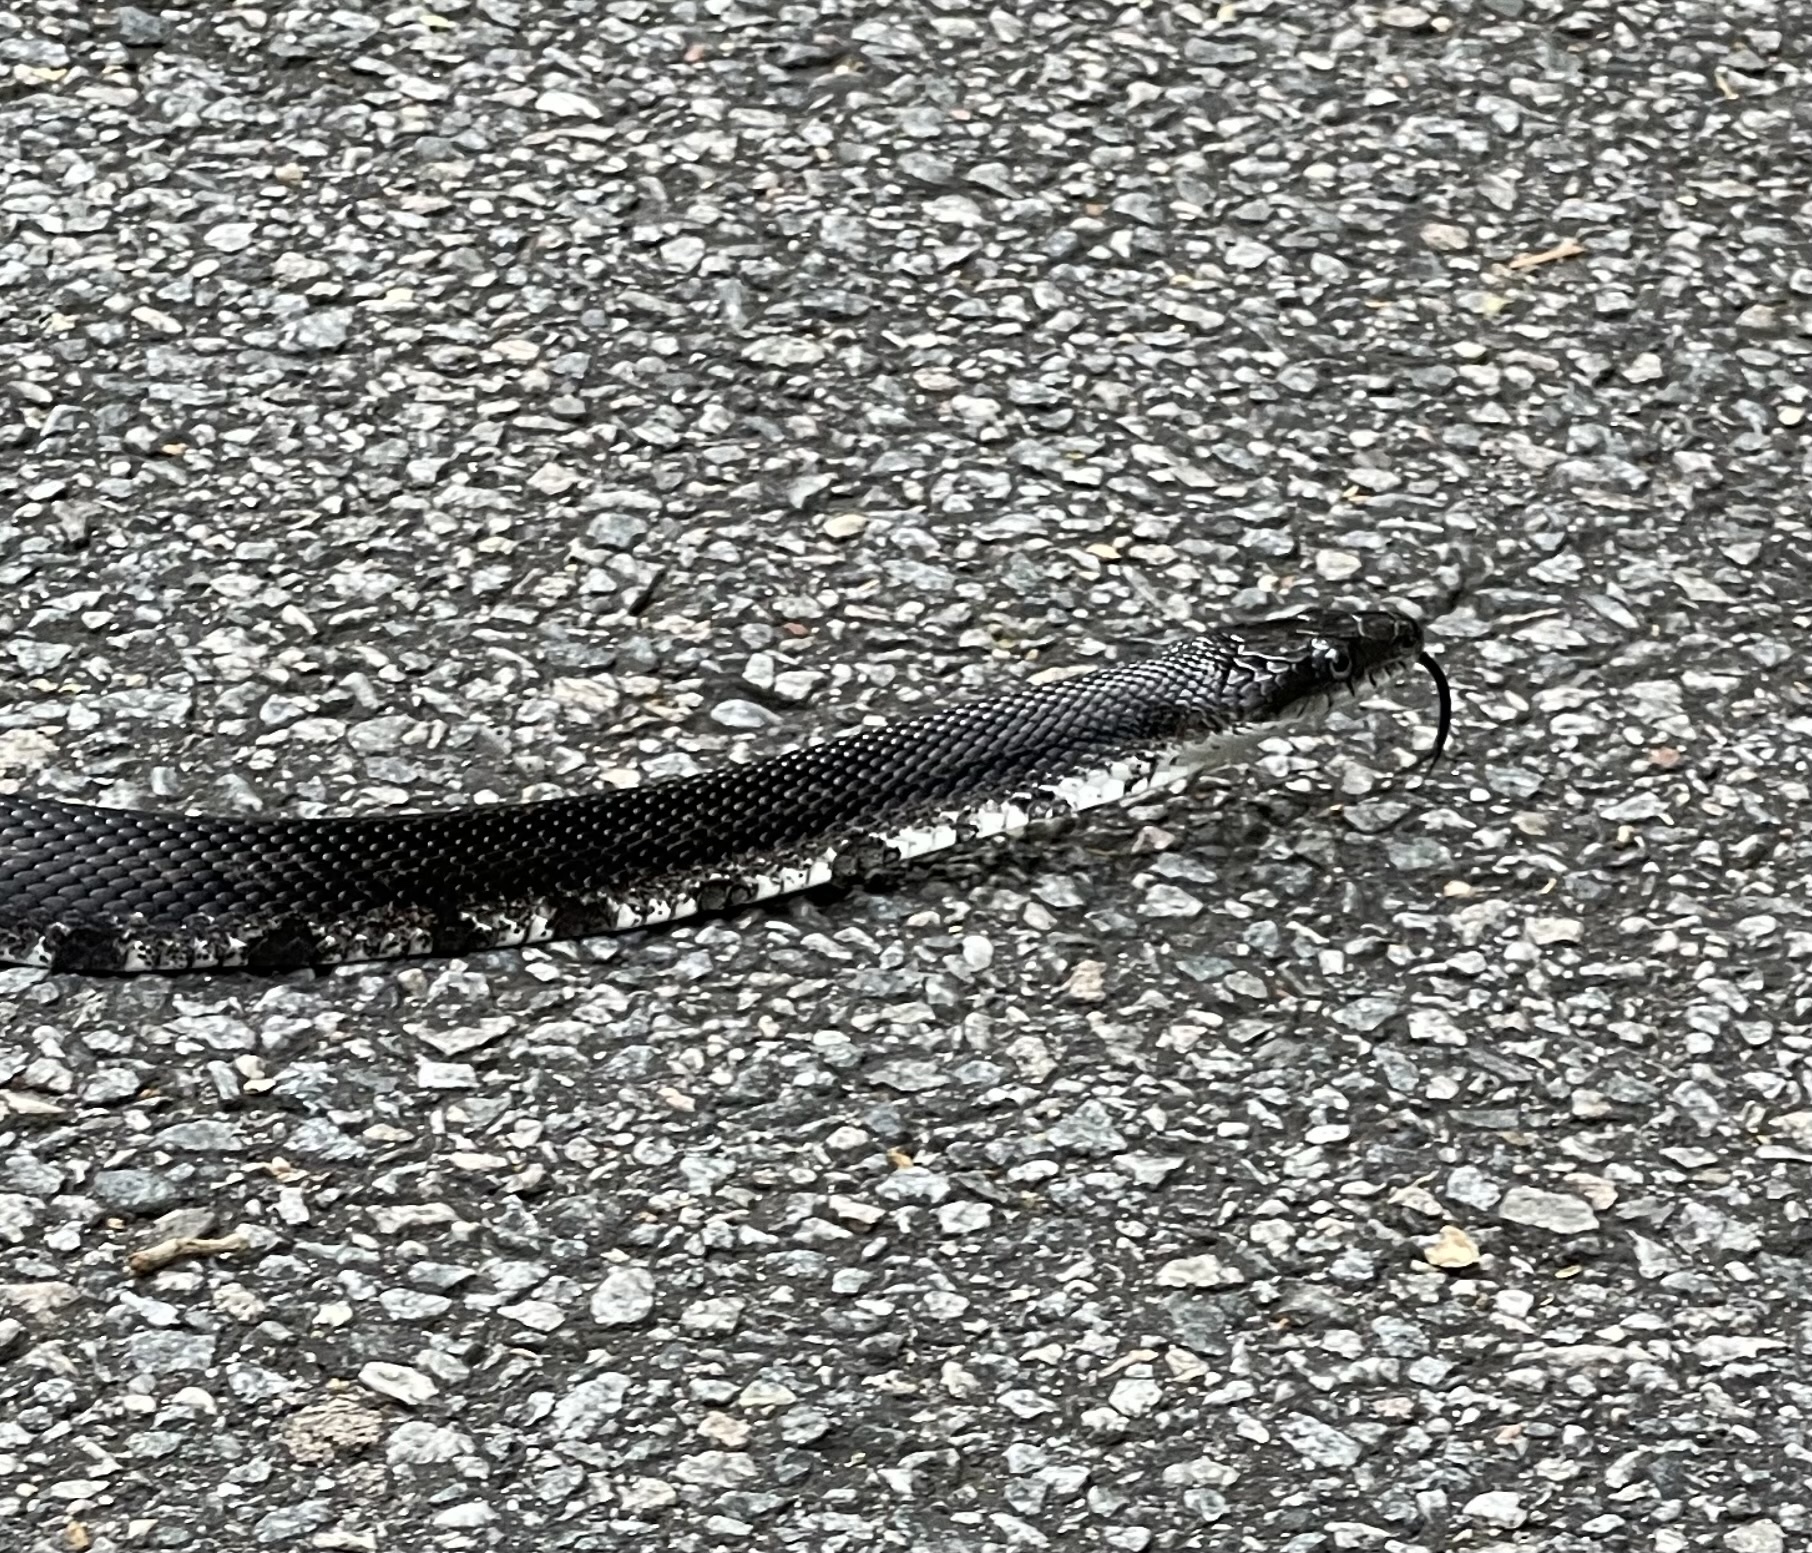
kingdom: Animalia
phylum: Chordata
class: Squamata
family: Colubridae
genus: Pantherophis
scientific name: Pantherophis
